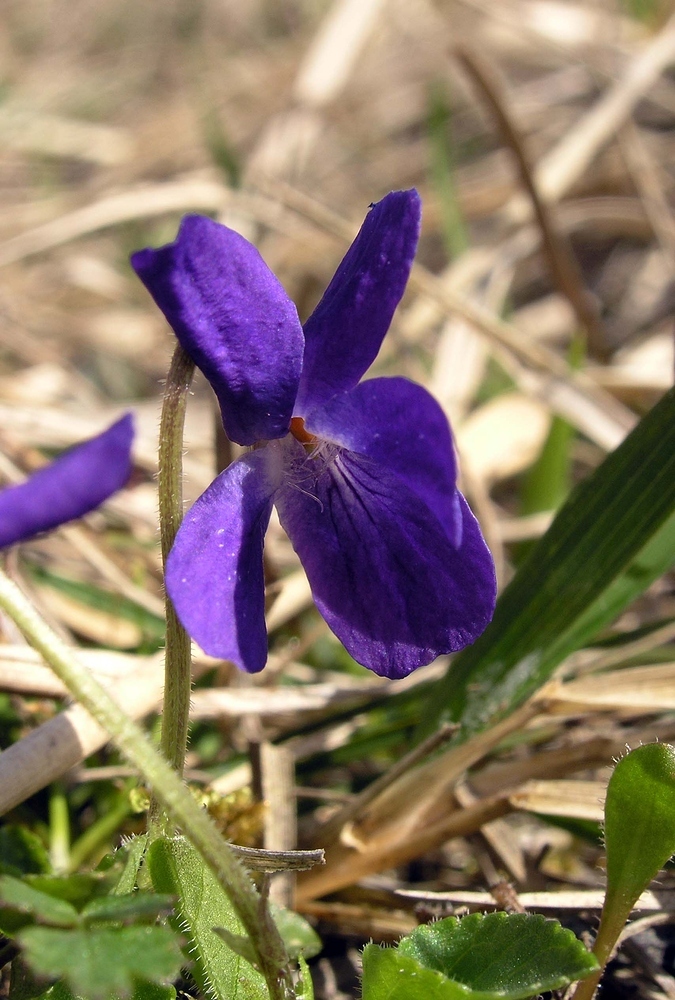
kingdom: Plantae
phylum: Tracheophyta
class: Magnoliopsida
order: Malpighiales
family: Violaceae
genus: Viola
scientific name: Viola hirta
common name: Hairy violet
